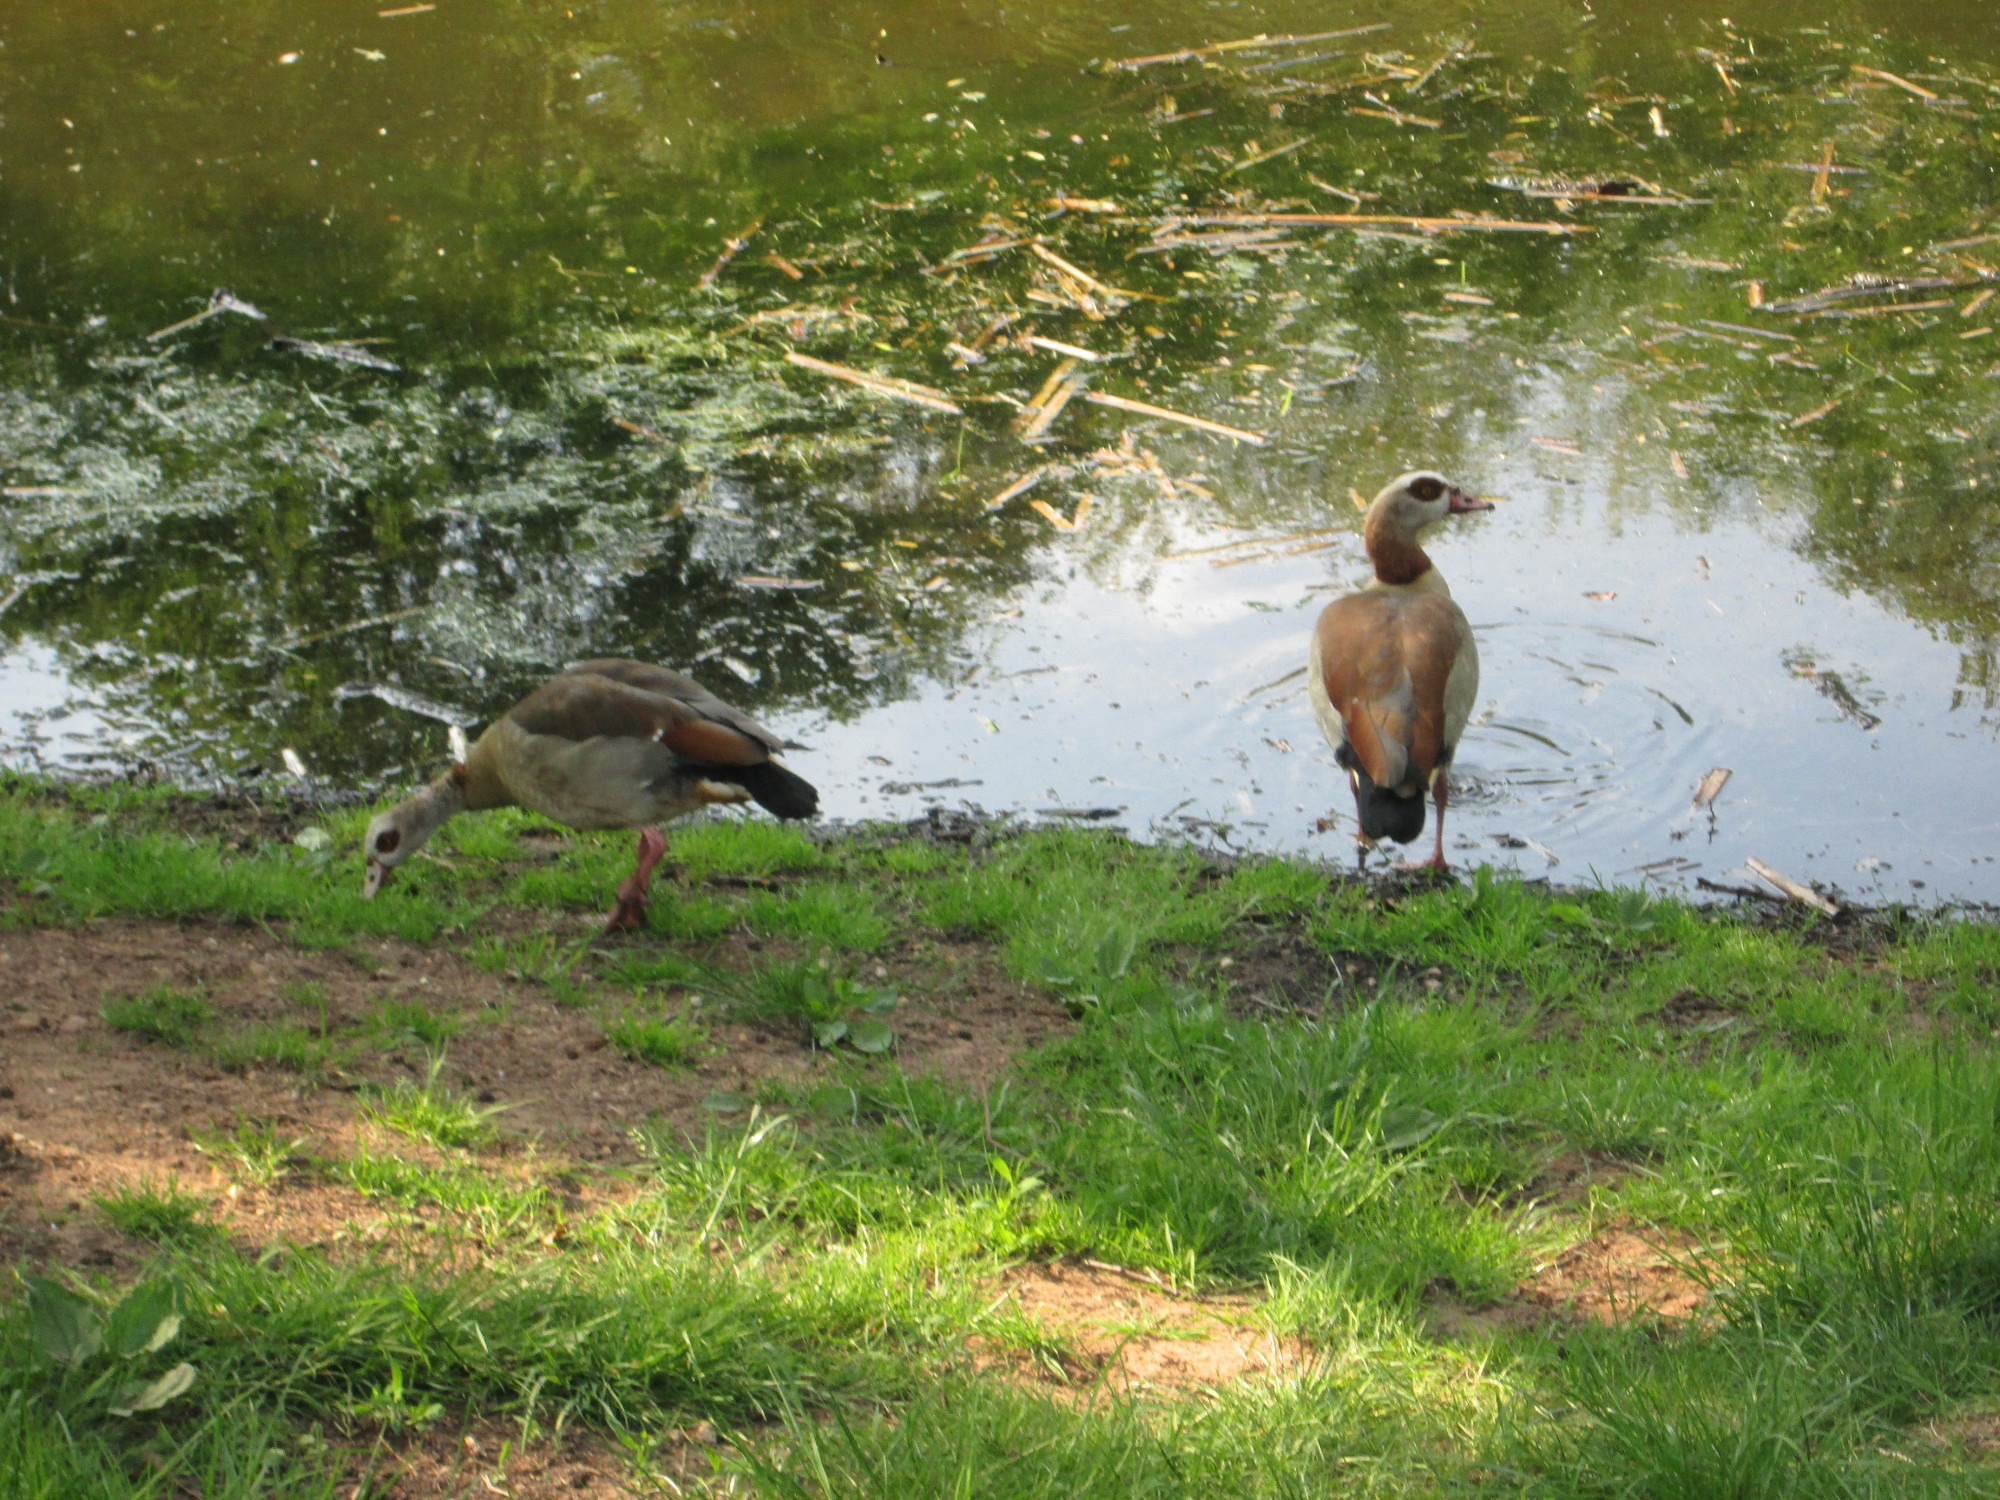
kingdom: Animalia
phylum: Chordata
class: Aves
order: Anseriformes
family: Anatidae
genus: Alopochen
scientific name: Alopochen aegyptiaca
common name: Egyptian goose
